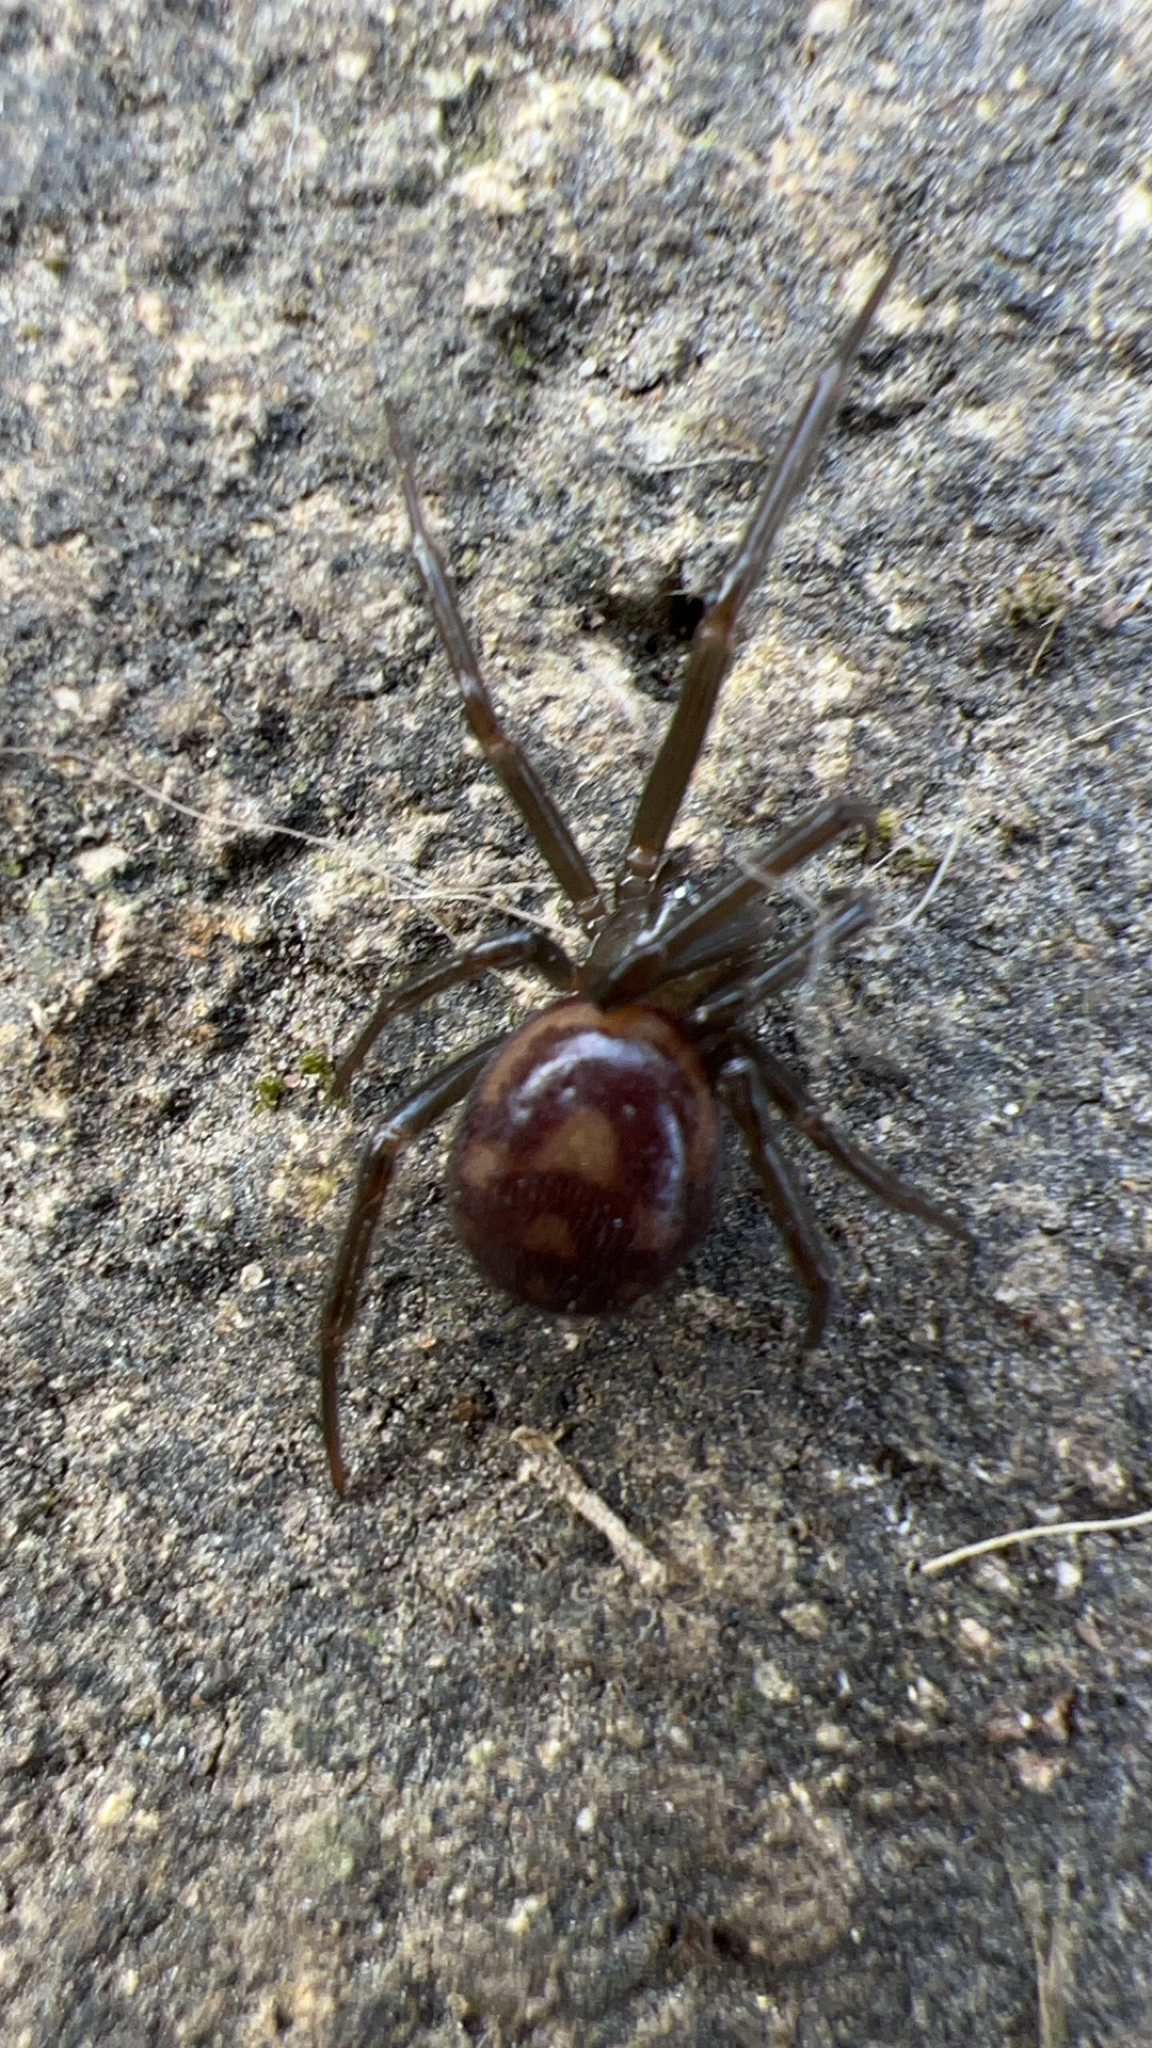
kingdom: Animalia
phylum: Arthropoda
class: Arachnida
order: Araneae
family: Theridiidae
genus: Steatoda
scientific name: Steatoda grossa
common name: False black widow
